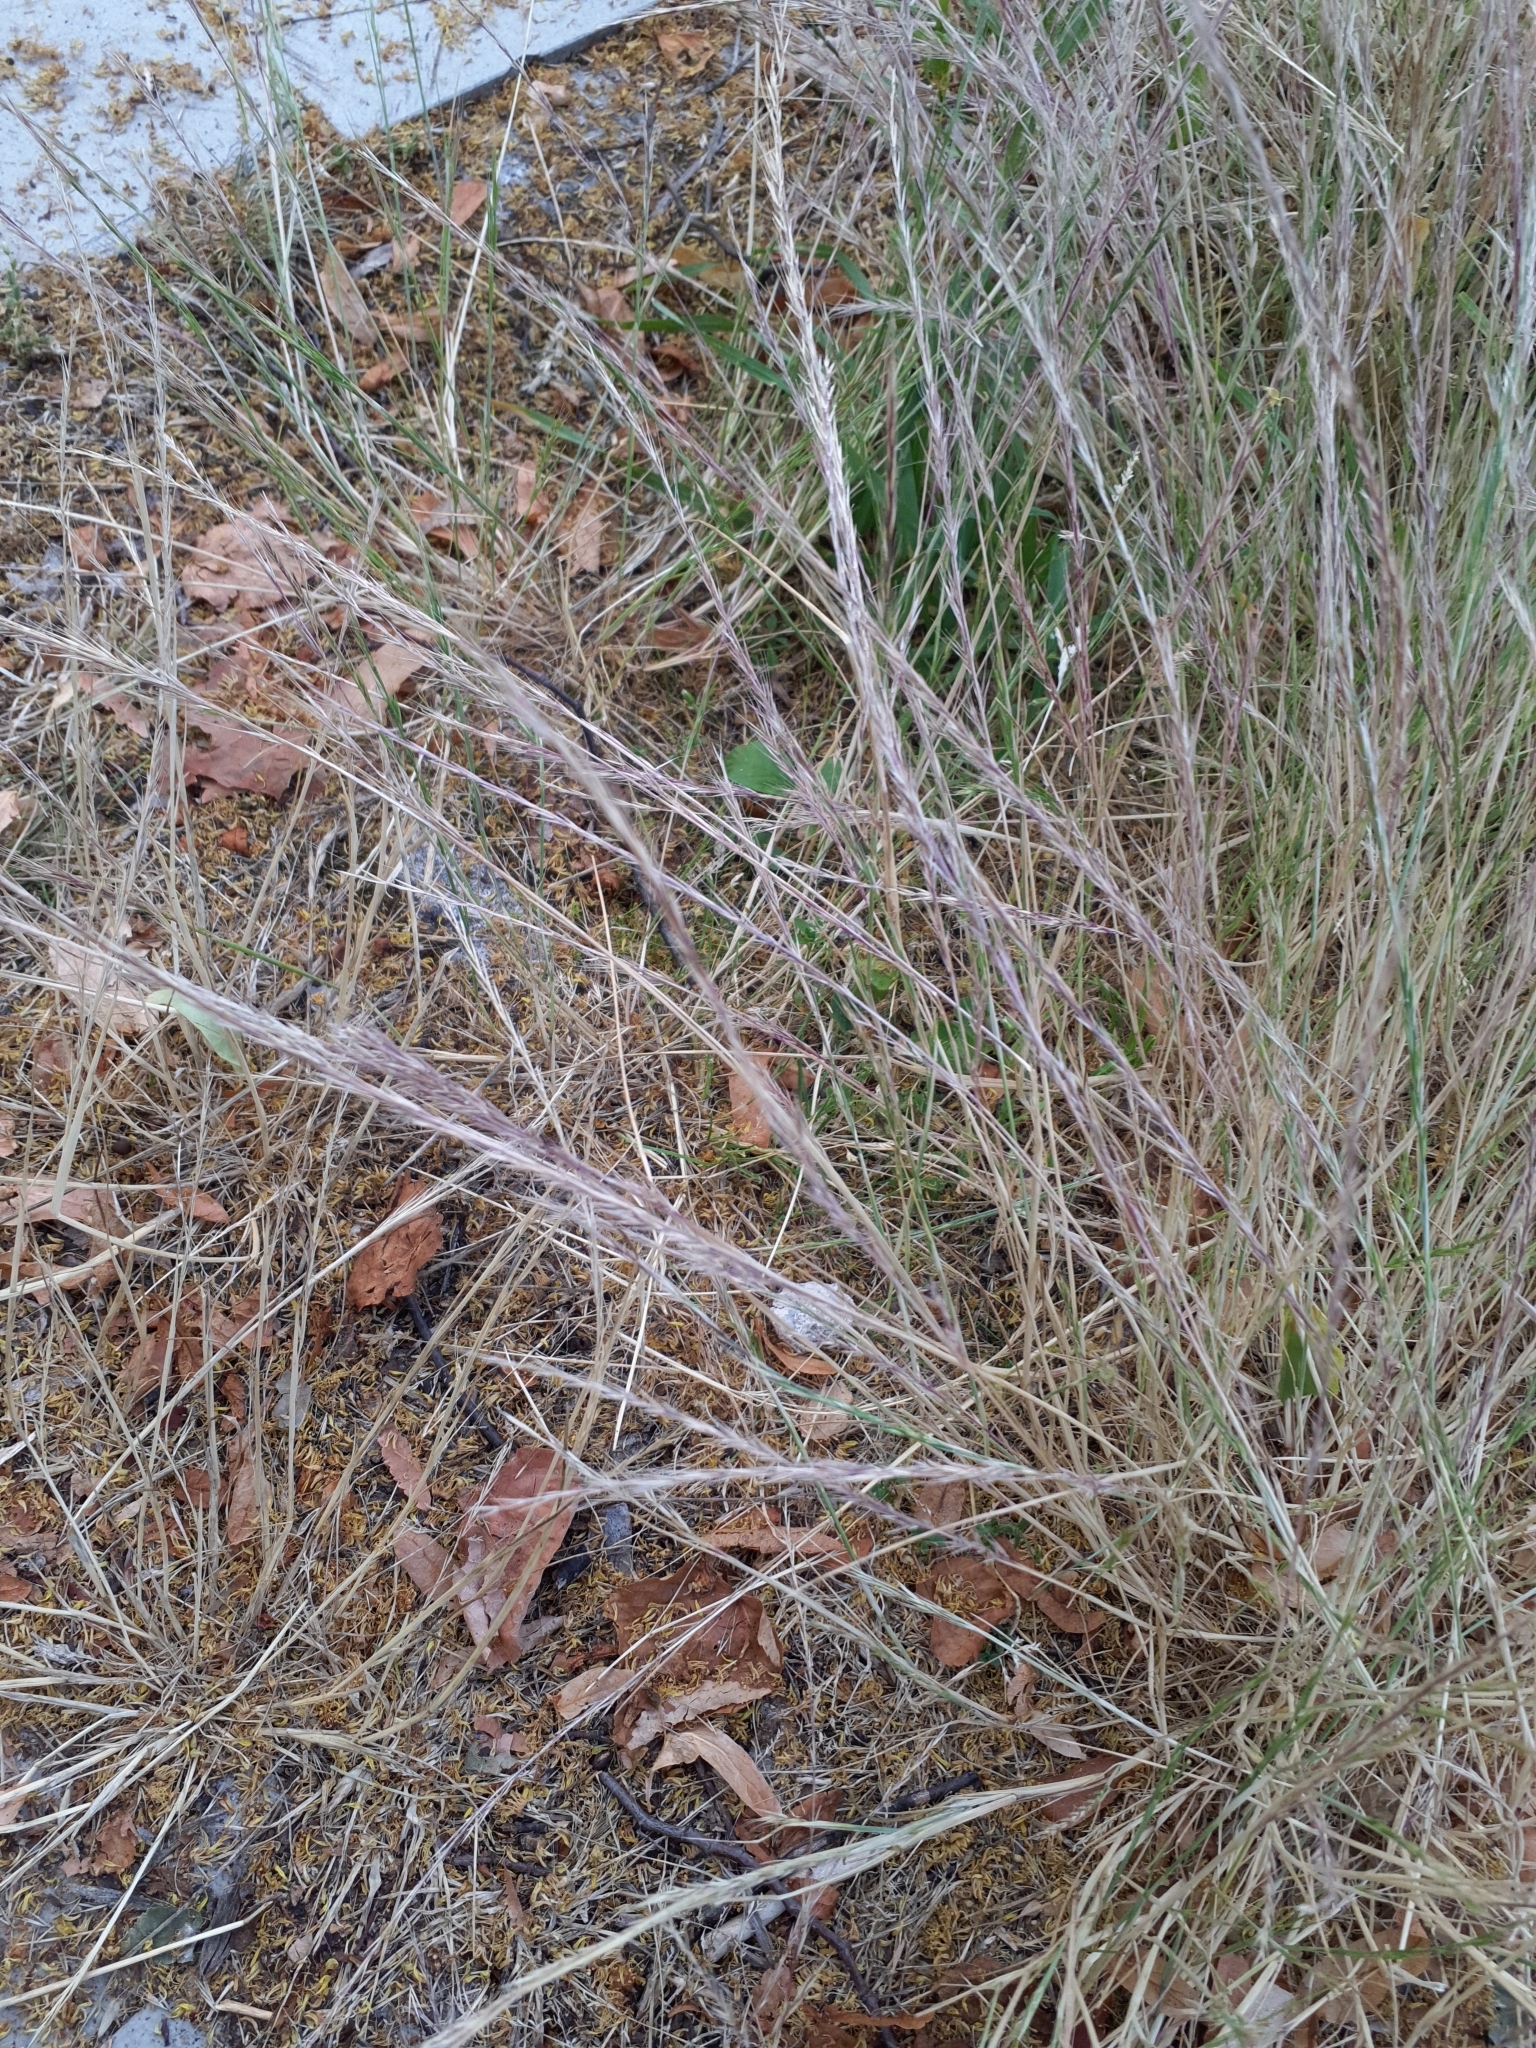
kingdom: Plantae
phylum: Tracheophyta
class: Liliopsida
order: Poales
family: Poaceae
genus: Festuca
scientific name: Festuca myuros
